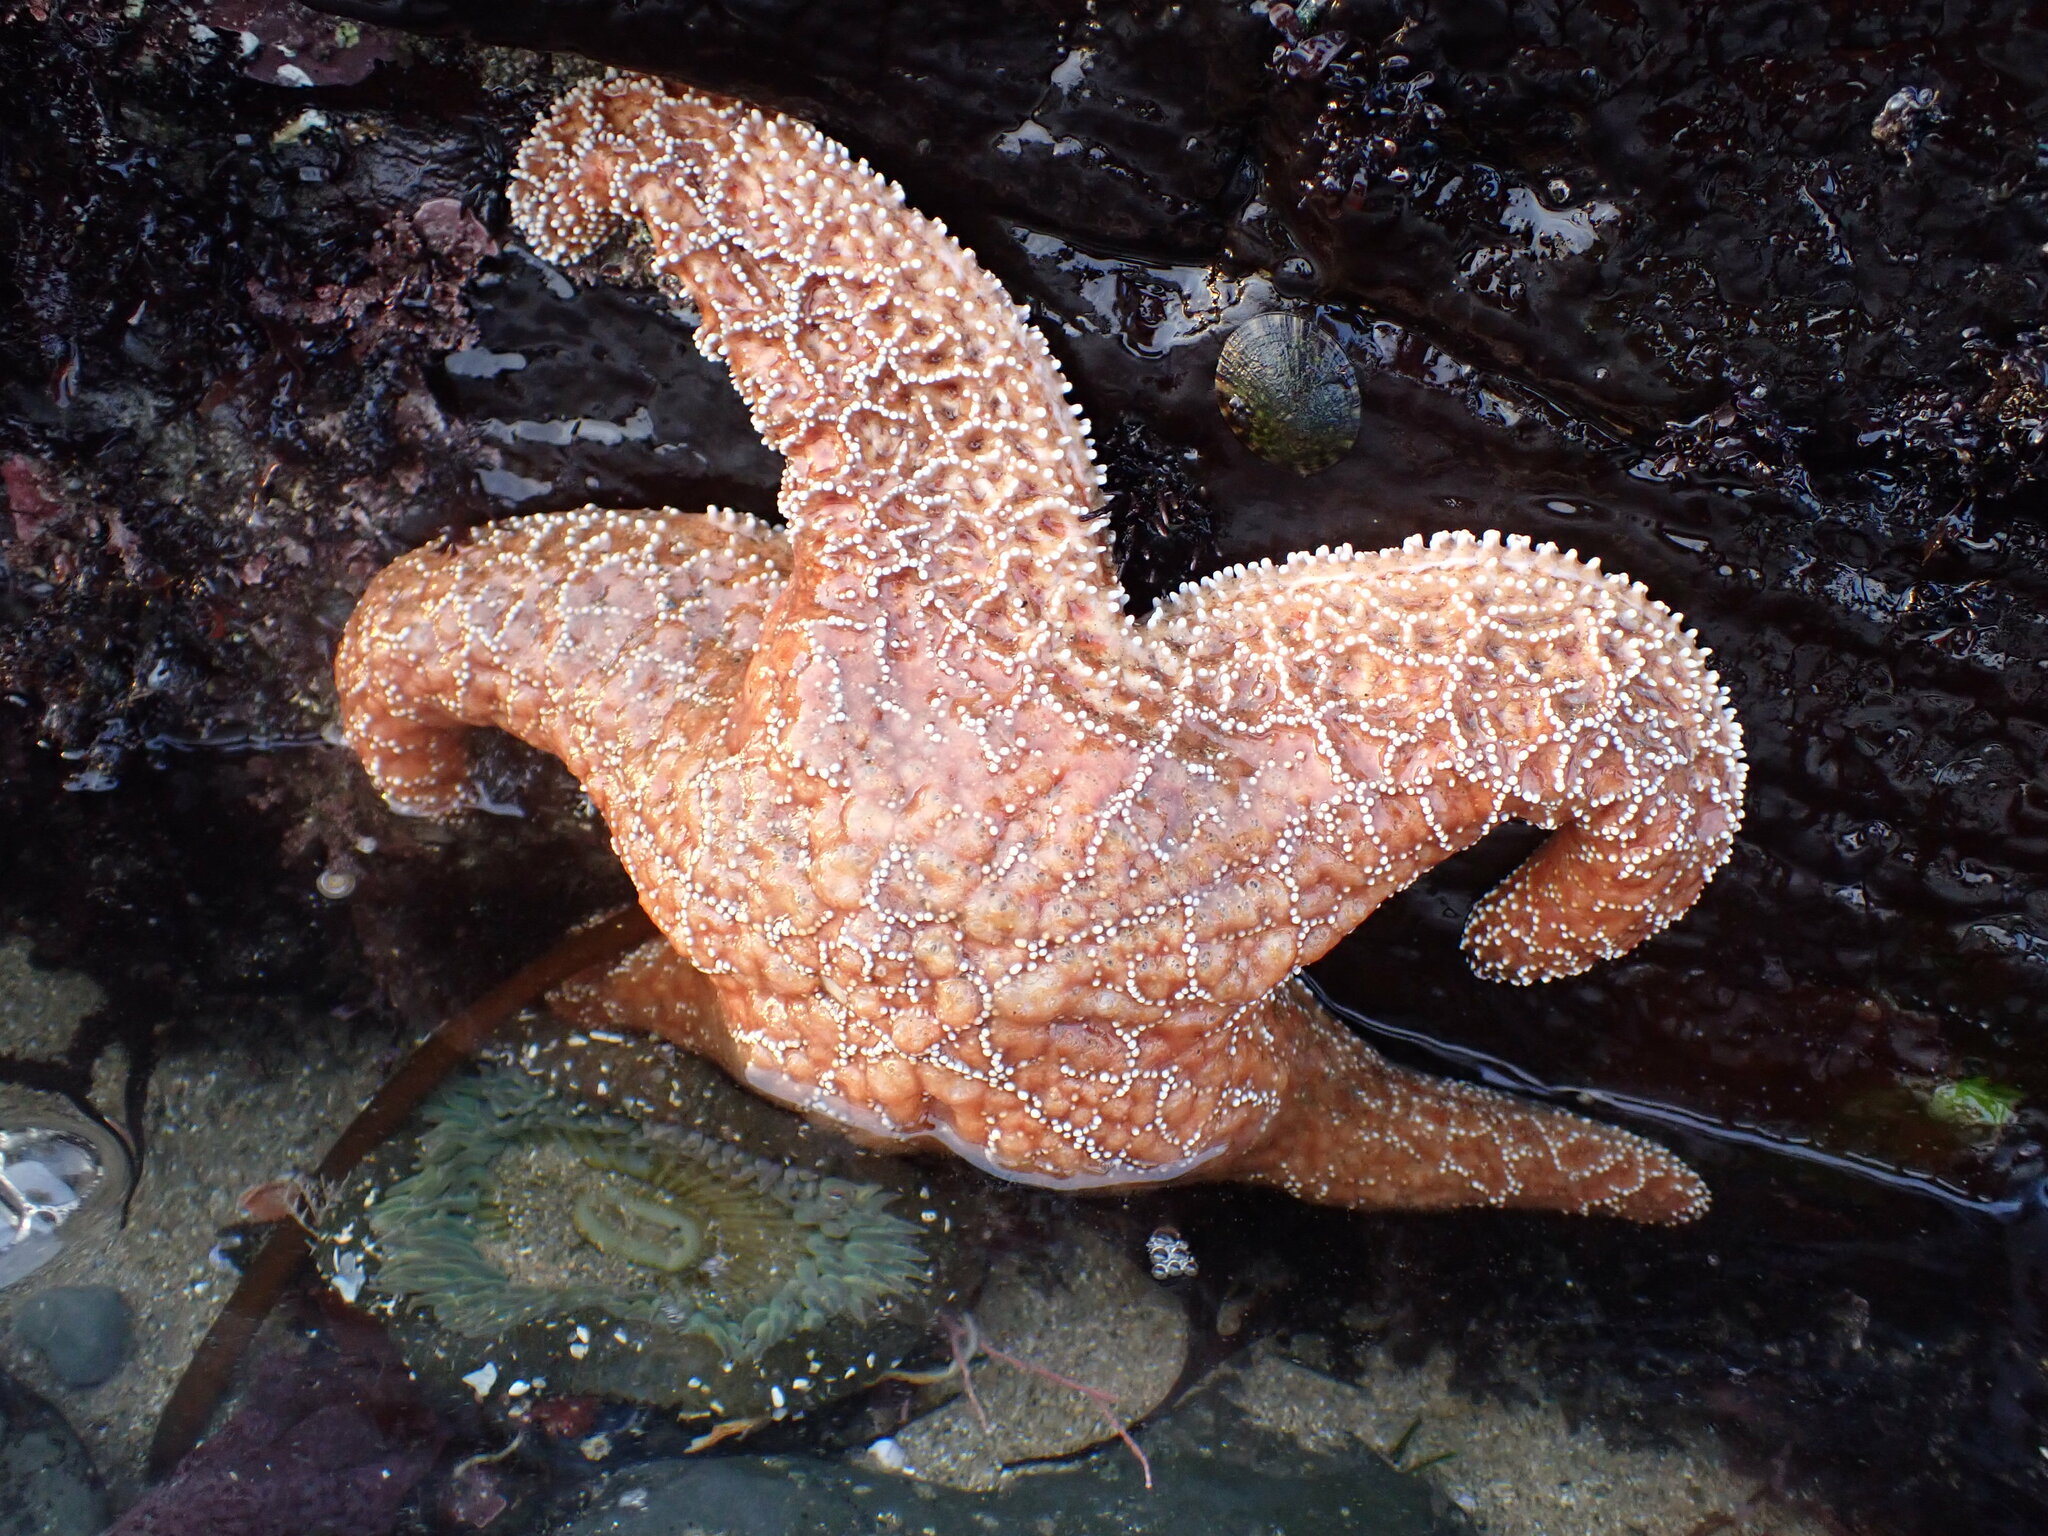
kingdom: Animalia
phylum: Echinodermata
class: Asteroidea
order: Forcipulatida
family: Asteriidae
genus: Pisaster
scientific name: Pisaster ochraceus
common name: Ochre stars
